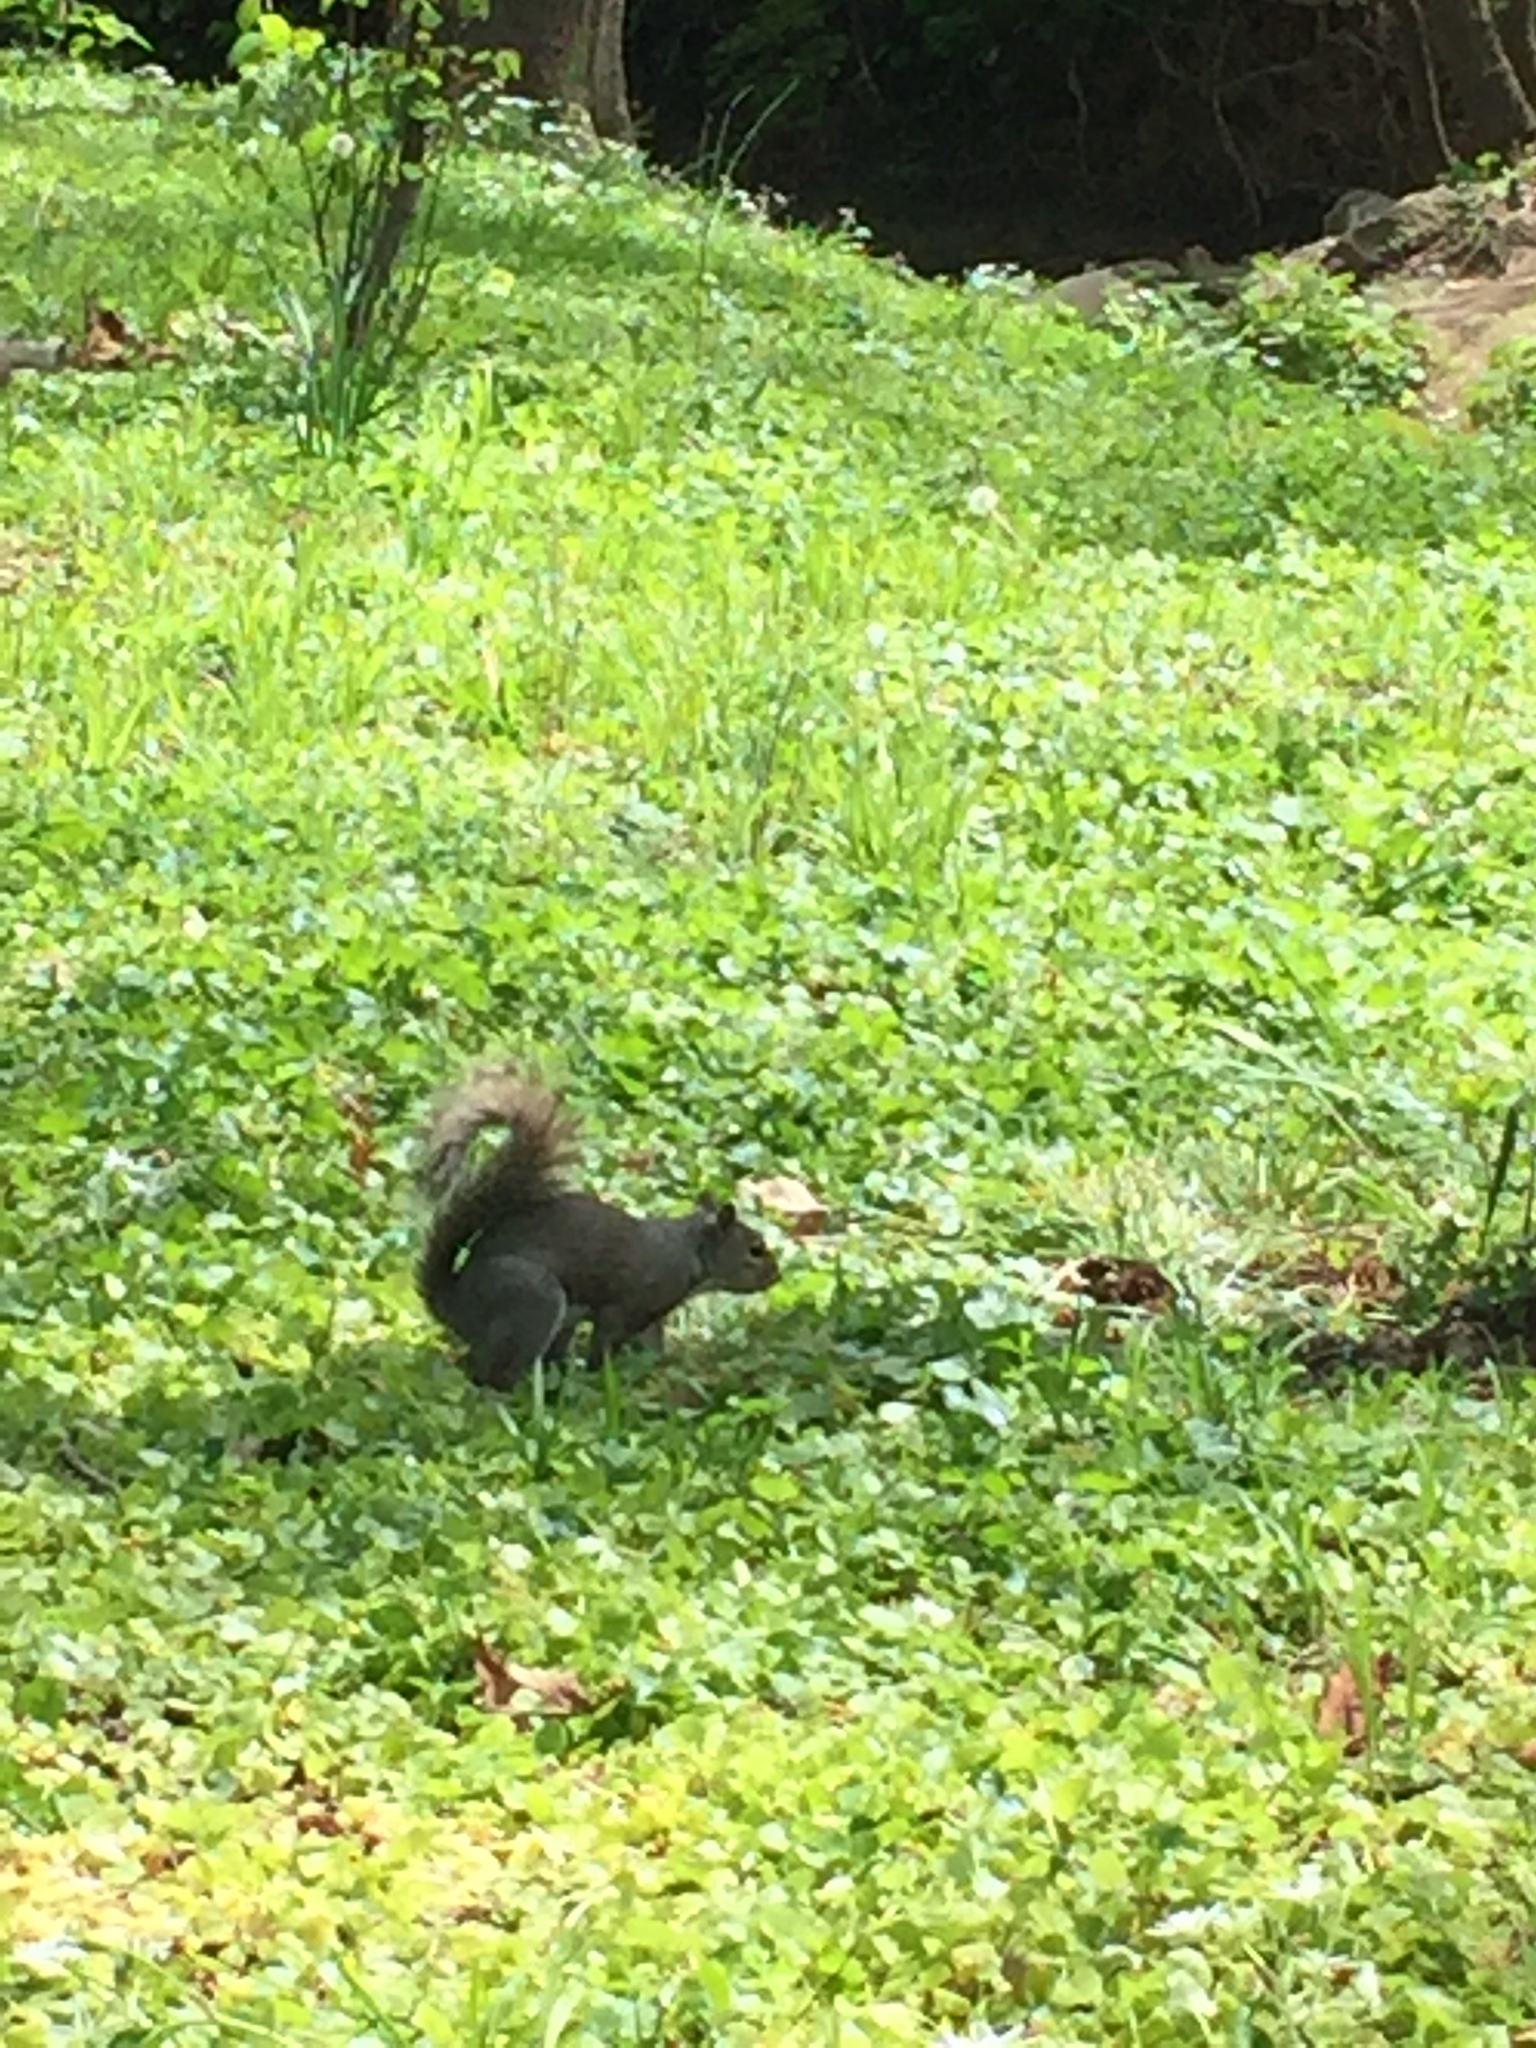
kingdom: Animalia
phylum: Chordata
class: Mammalia
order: Rodentia
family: Sciuridae
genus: Sciurus
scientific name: Sciurus carolinensis
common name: Eastern gray squirrel
